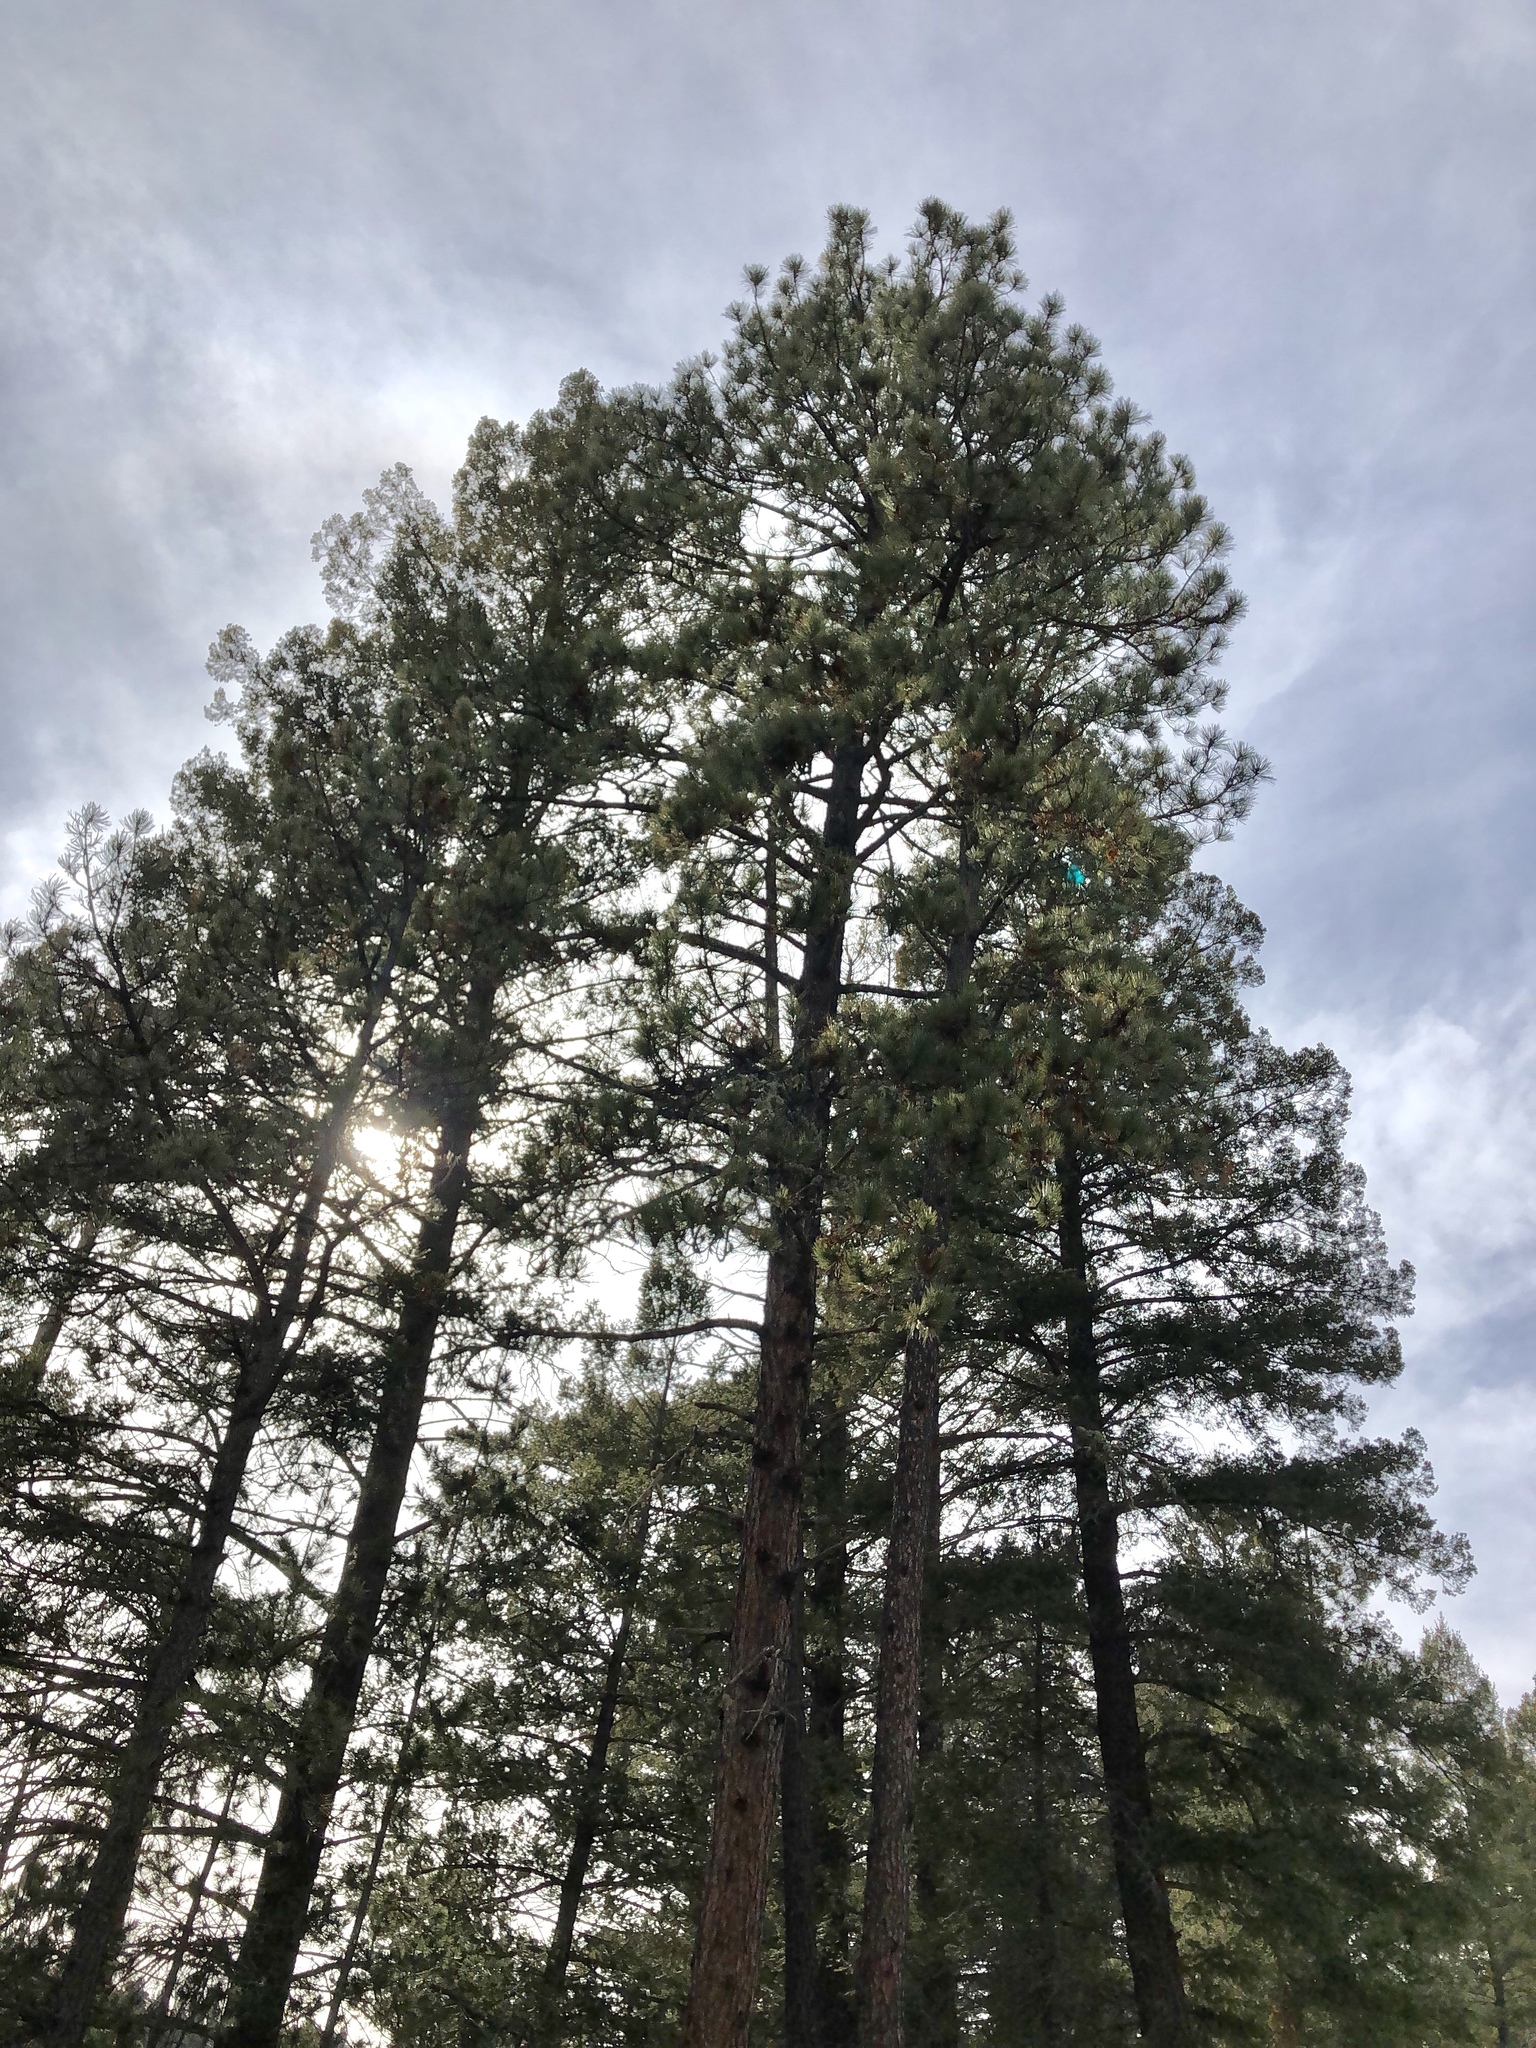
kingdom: Plantae
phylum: Tracheophyta
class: Pinopsida
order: Pinales
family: Pinaceae
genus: Pinus
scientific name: Pinus ponderosa
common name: Western yellow-pine
